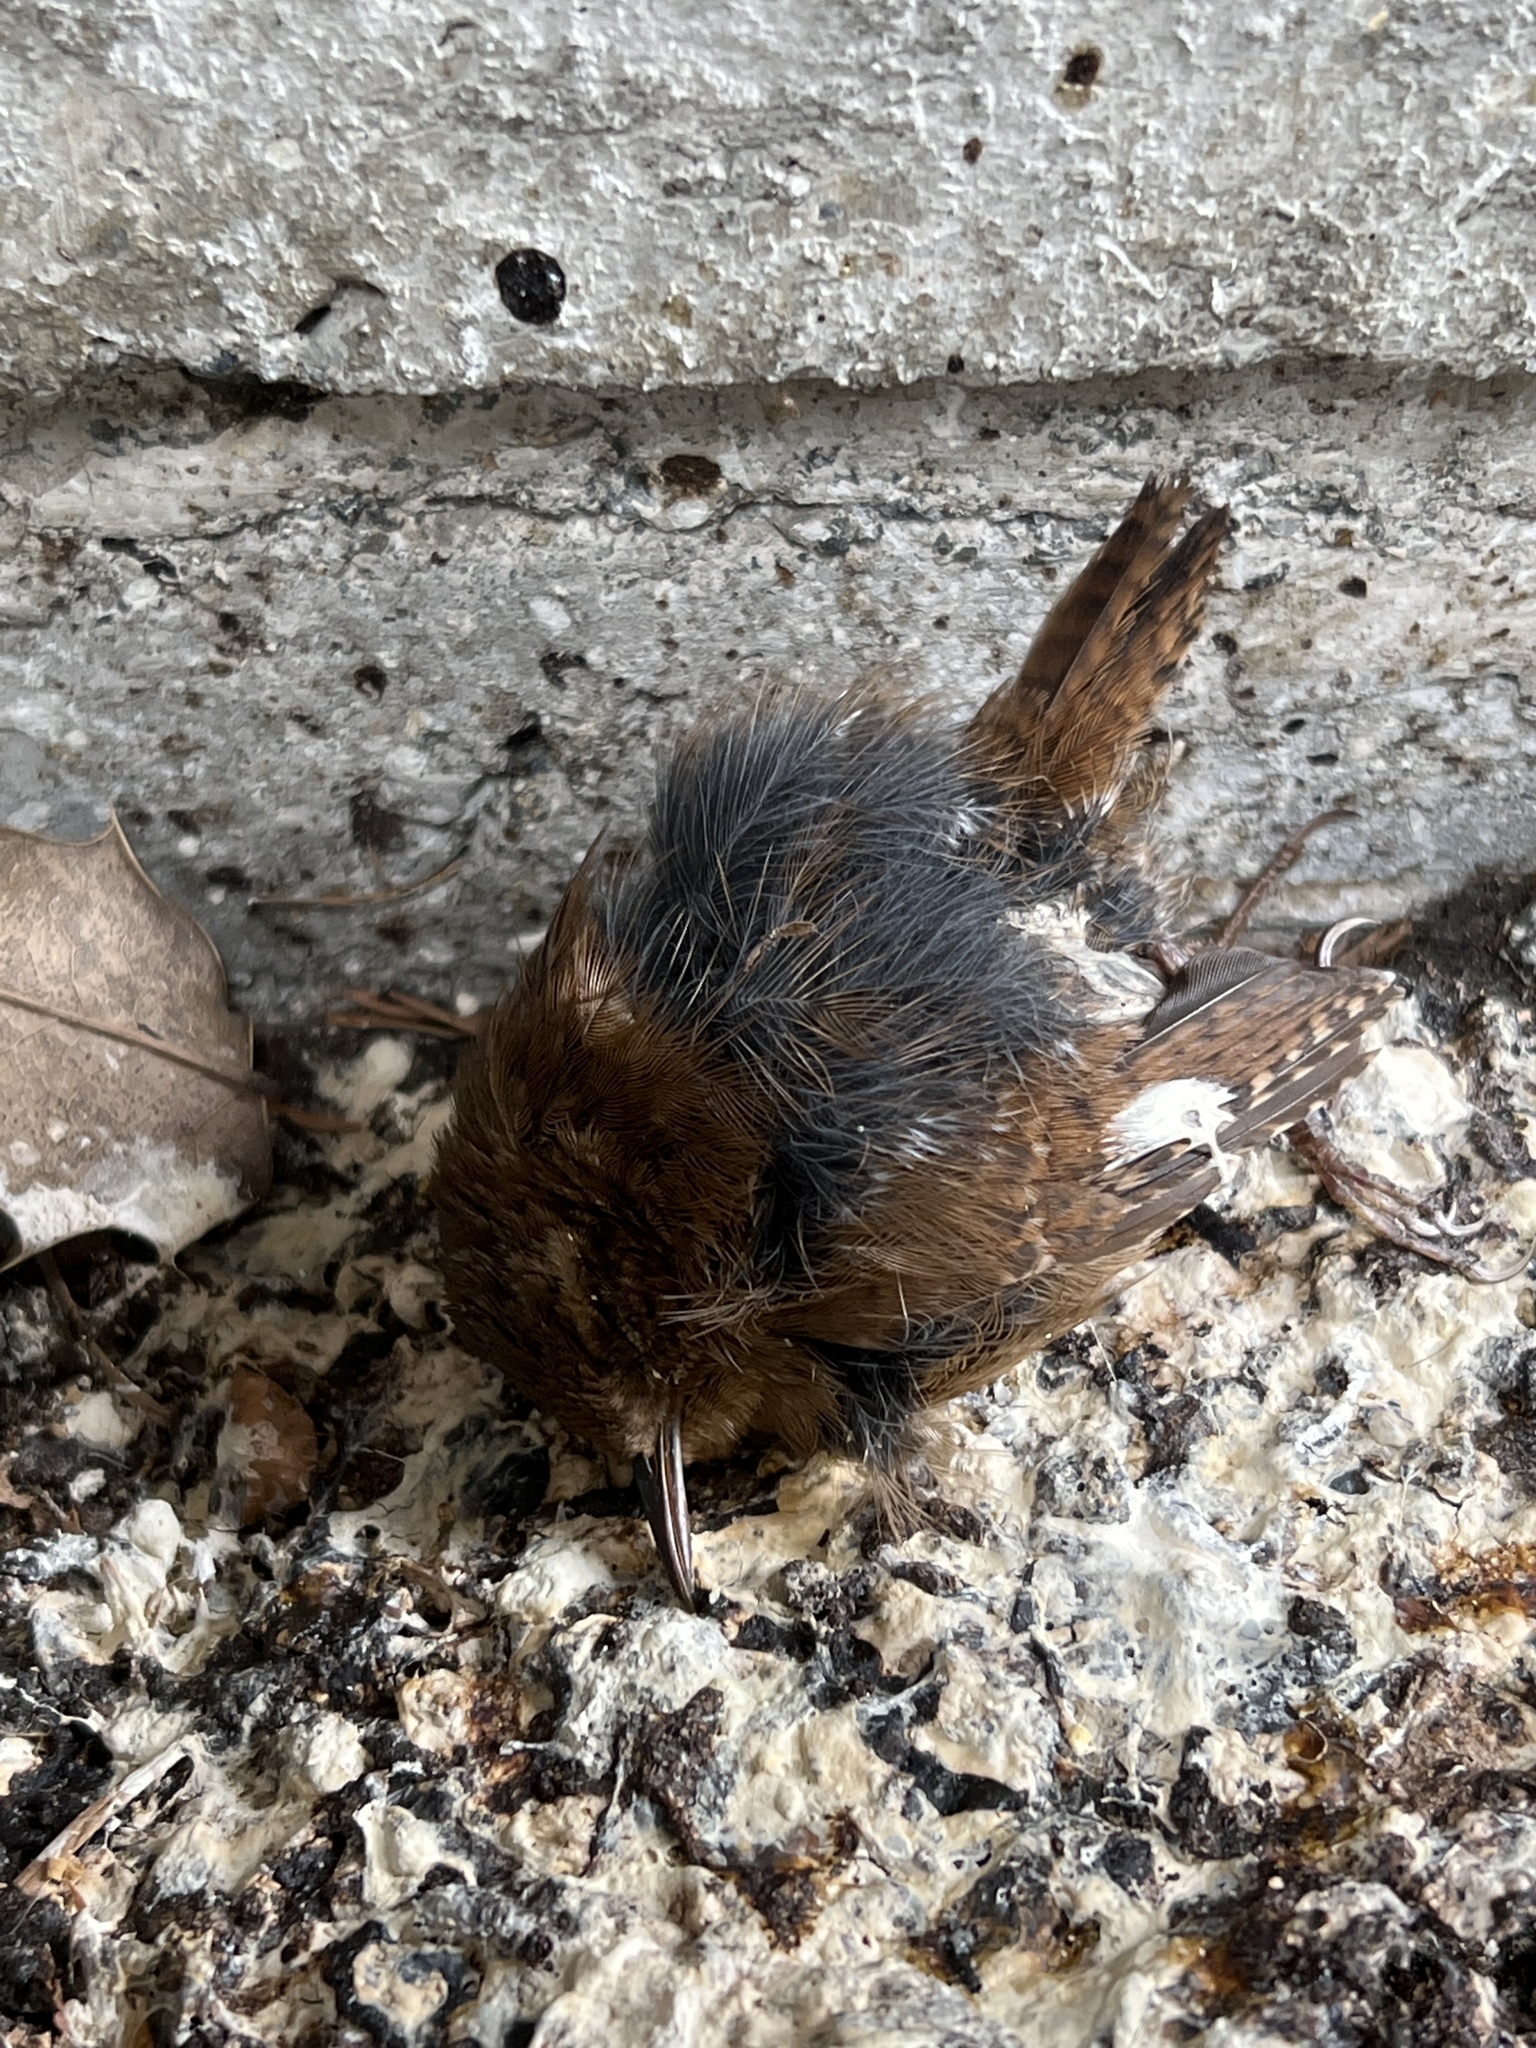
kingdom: Animalia
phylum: Chordata
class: Aves
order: Passeriformes
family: Troglodytidae
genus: Troglodytes
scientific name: Troglodytes pacificus
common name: Pacific wren
